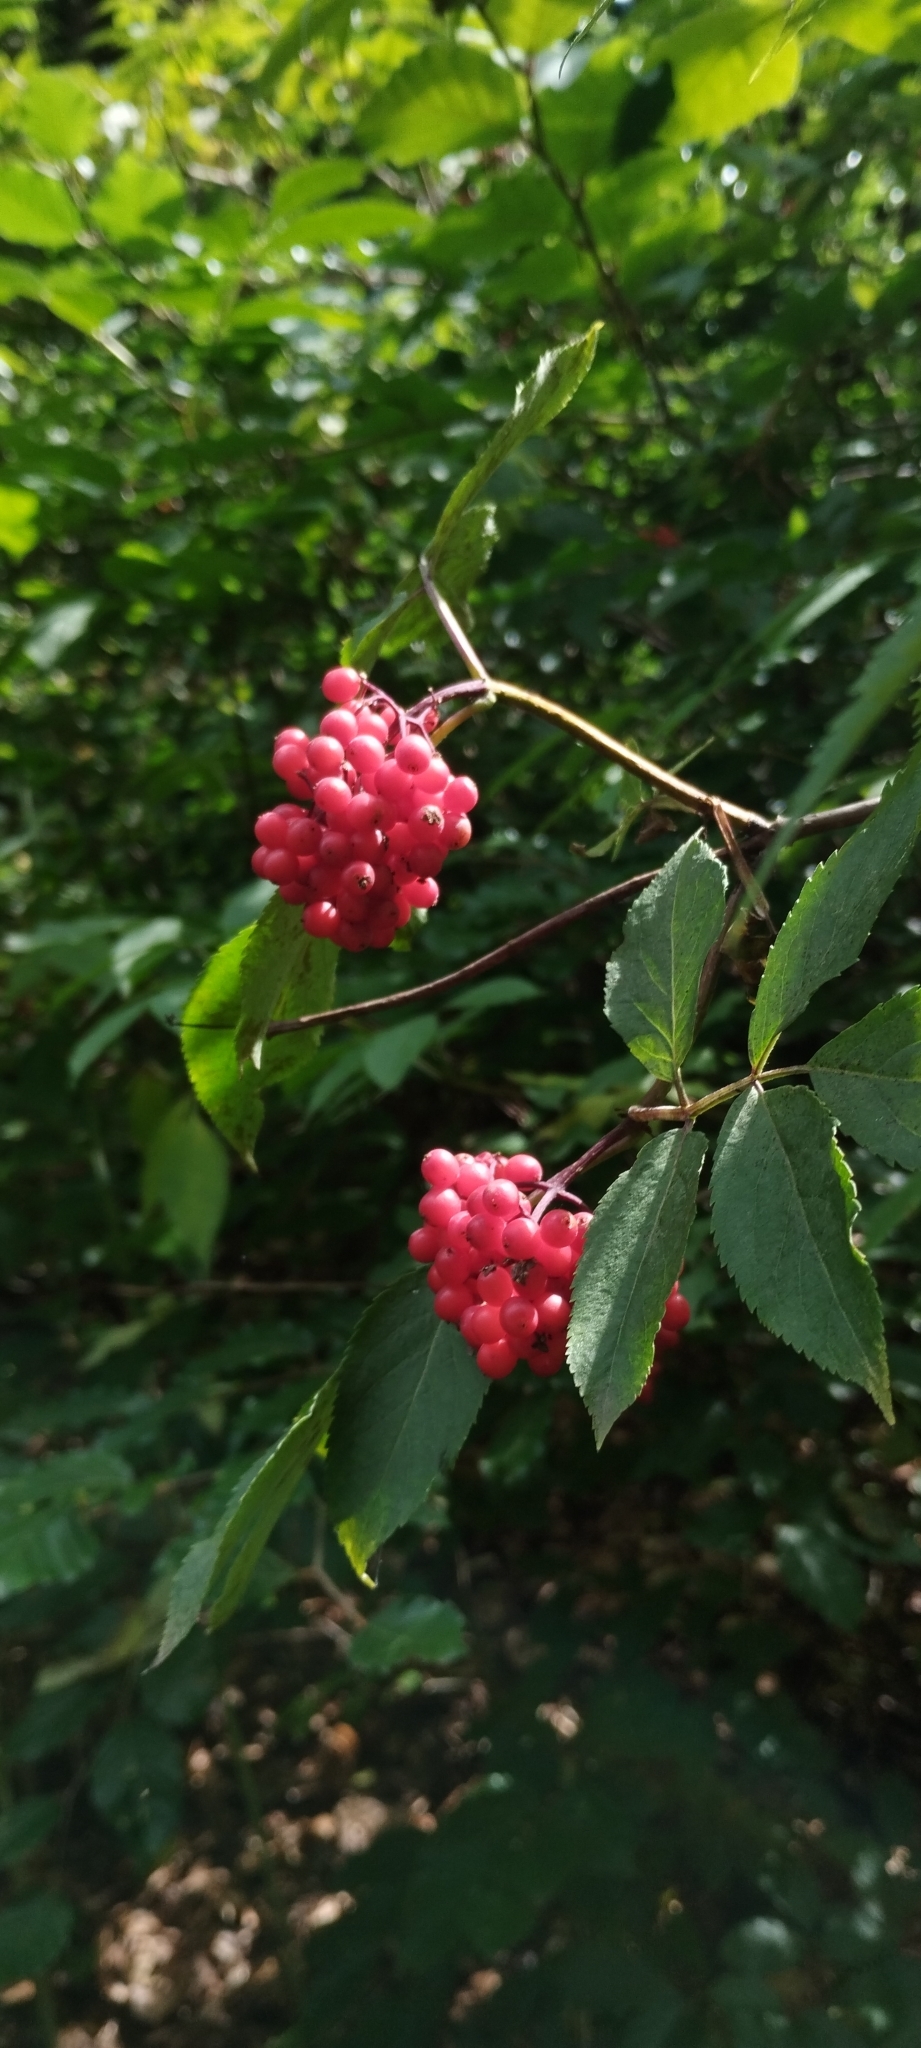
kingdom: Plantae
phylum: Tracheophyta
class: Magnoliopsida
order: Dipsacales
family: Viburnaceae
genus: Sambucus
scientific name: Sambucus racemosa
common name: Red-berried elder
